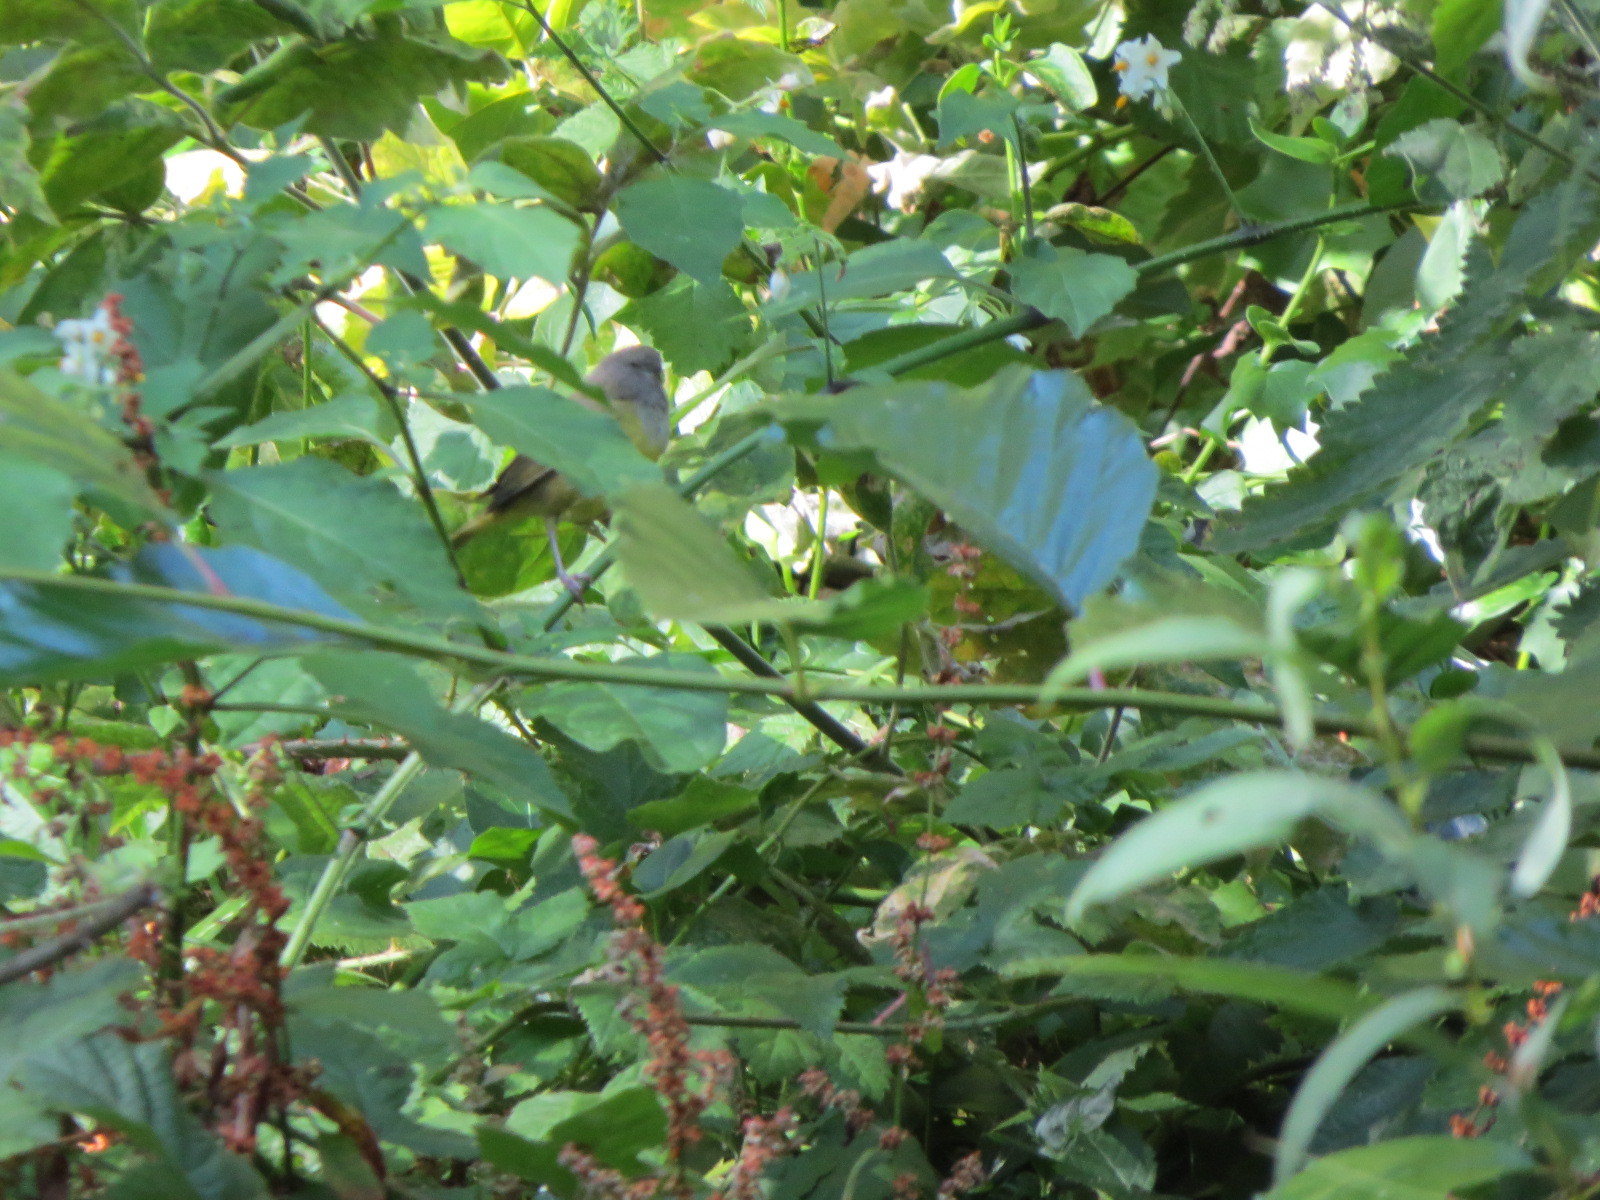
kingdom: Animalia
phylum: Chordata
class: Aves
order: Passeriformes
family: Parulidae
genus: Geothlypis
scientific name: Geothlypis tolmiei
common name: Macgillivray's warbler
